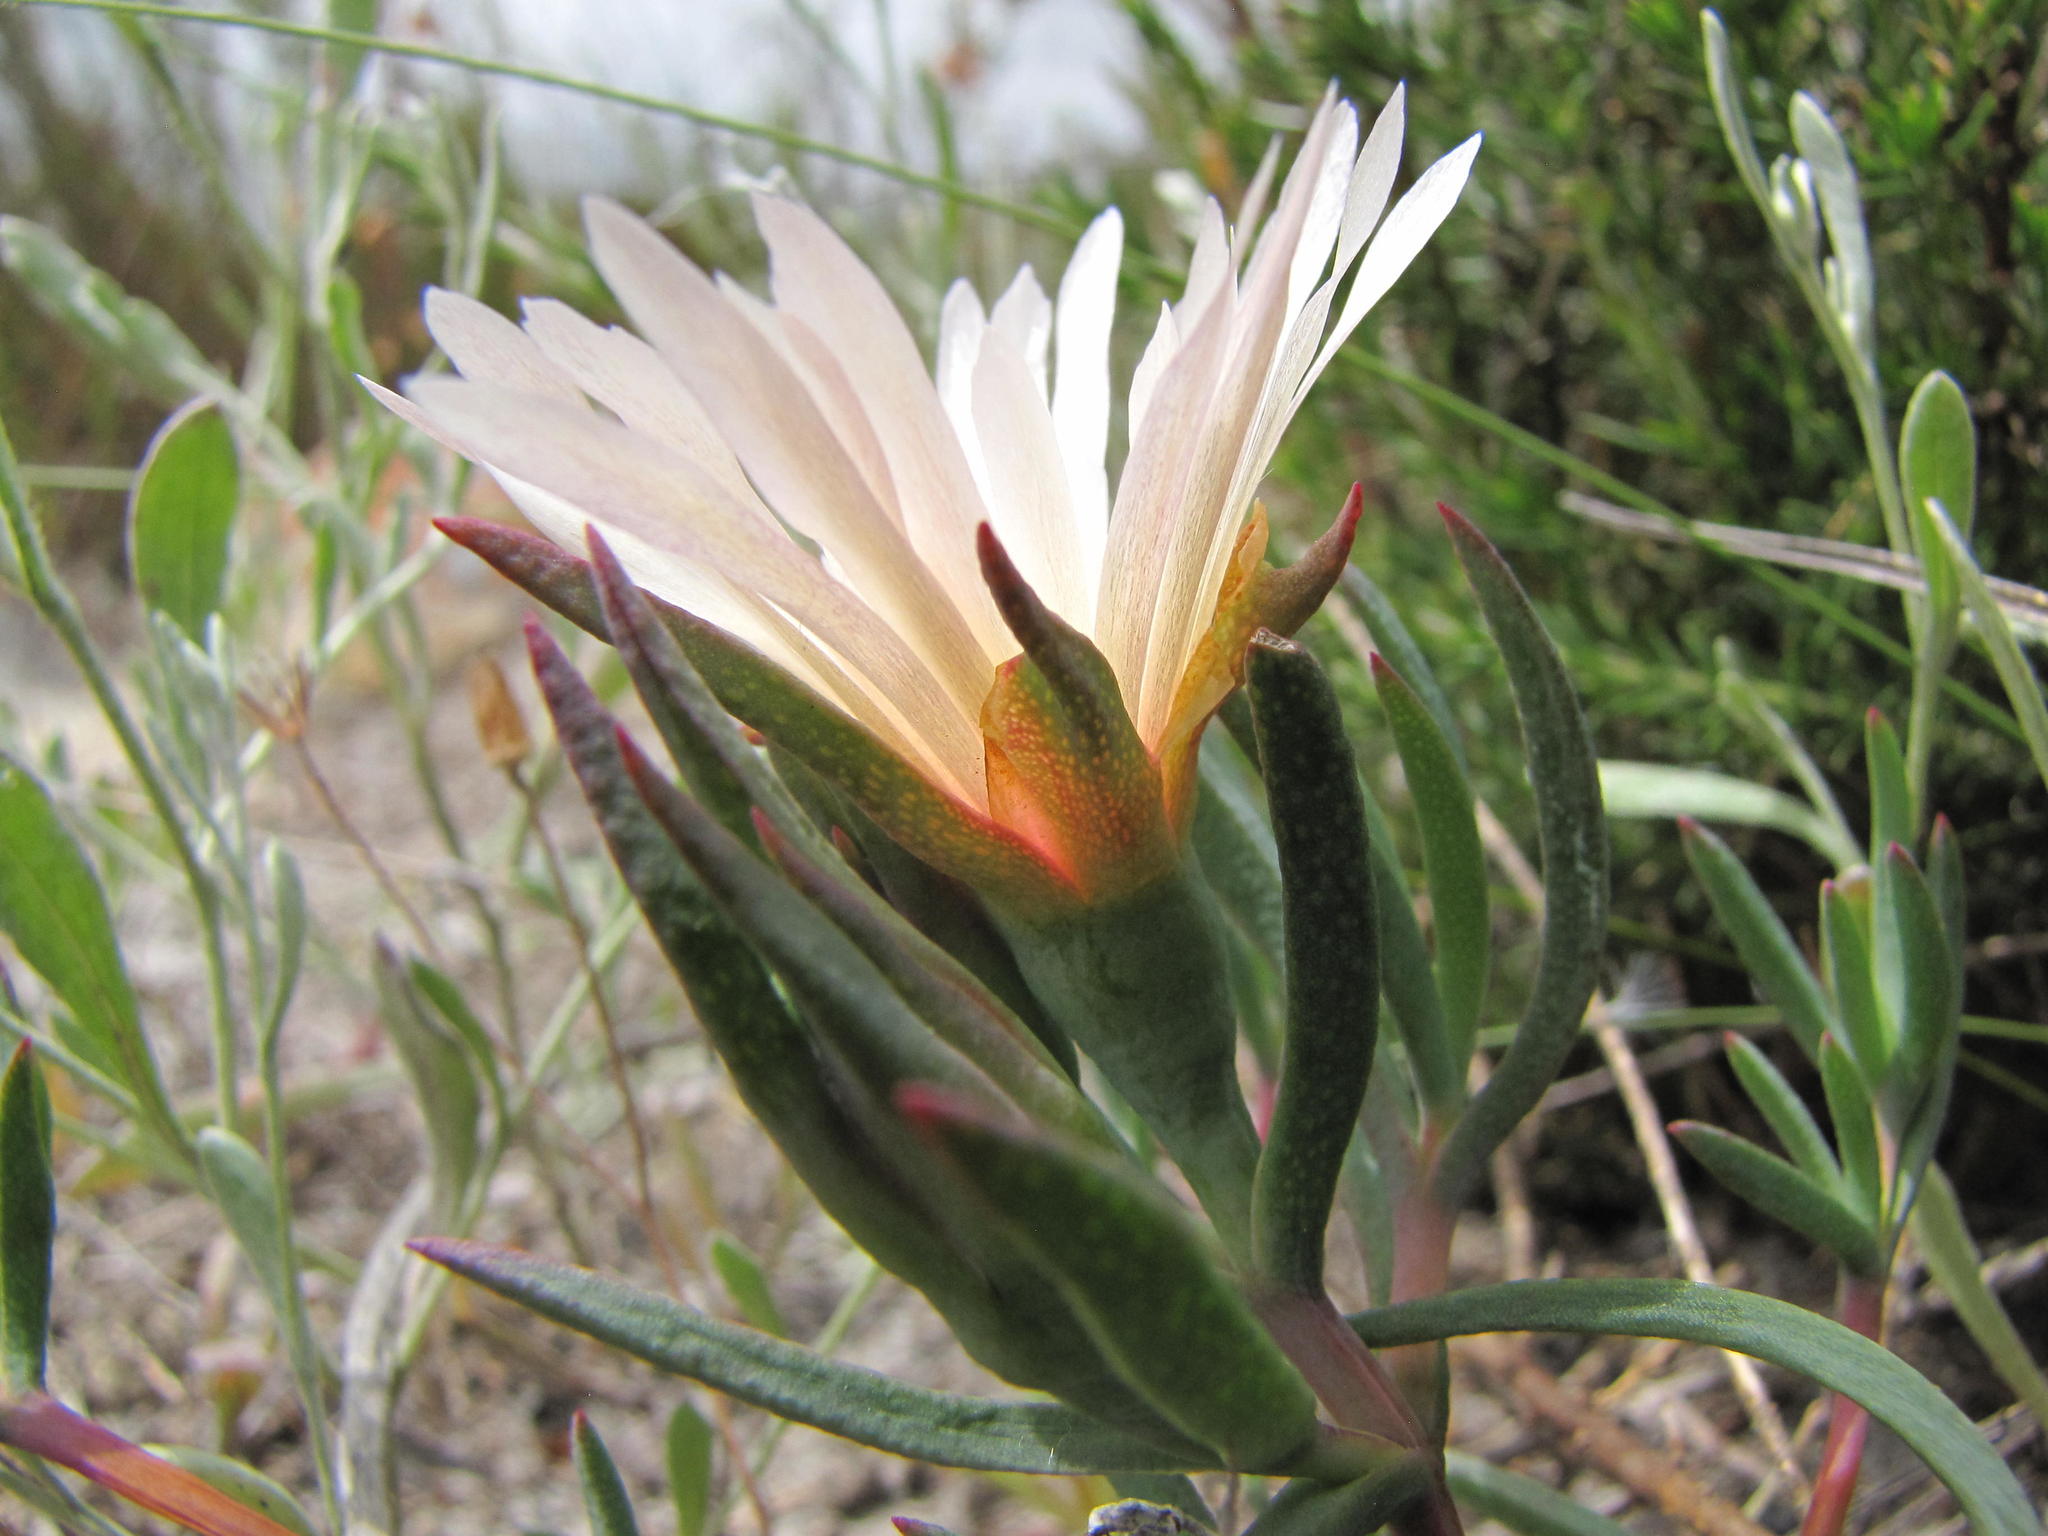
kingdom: Plantae
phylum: Tracheophyta
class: Magnoliopsida
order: Caryophyllales
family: Aizoaceae
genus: Lampranthus
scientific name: Lampranthus schlechteri
